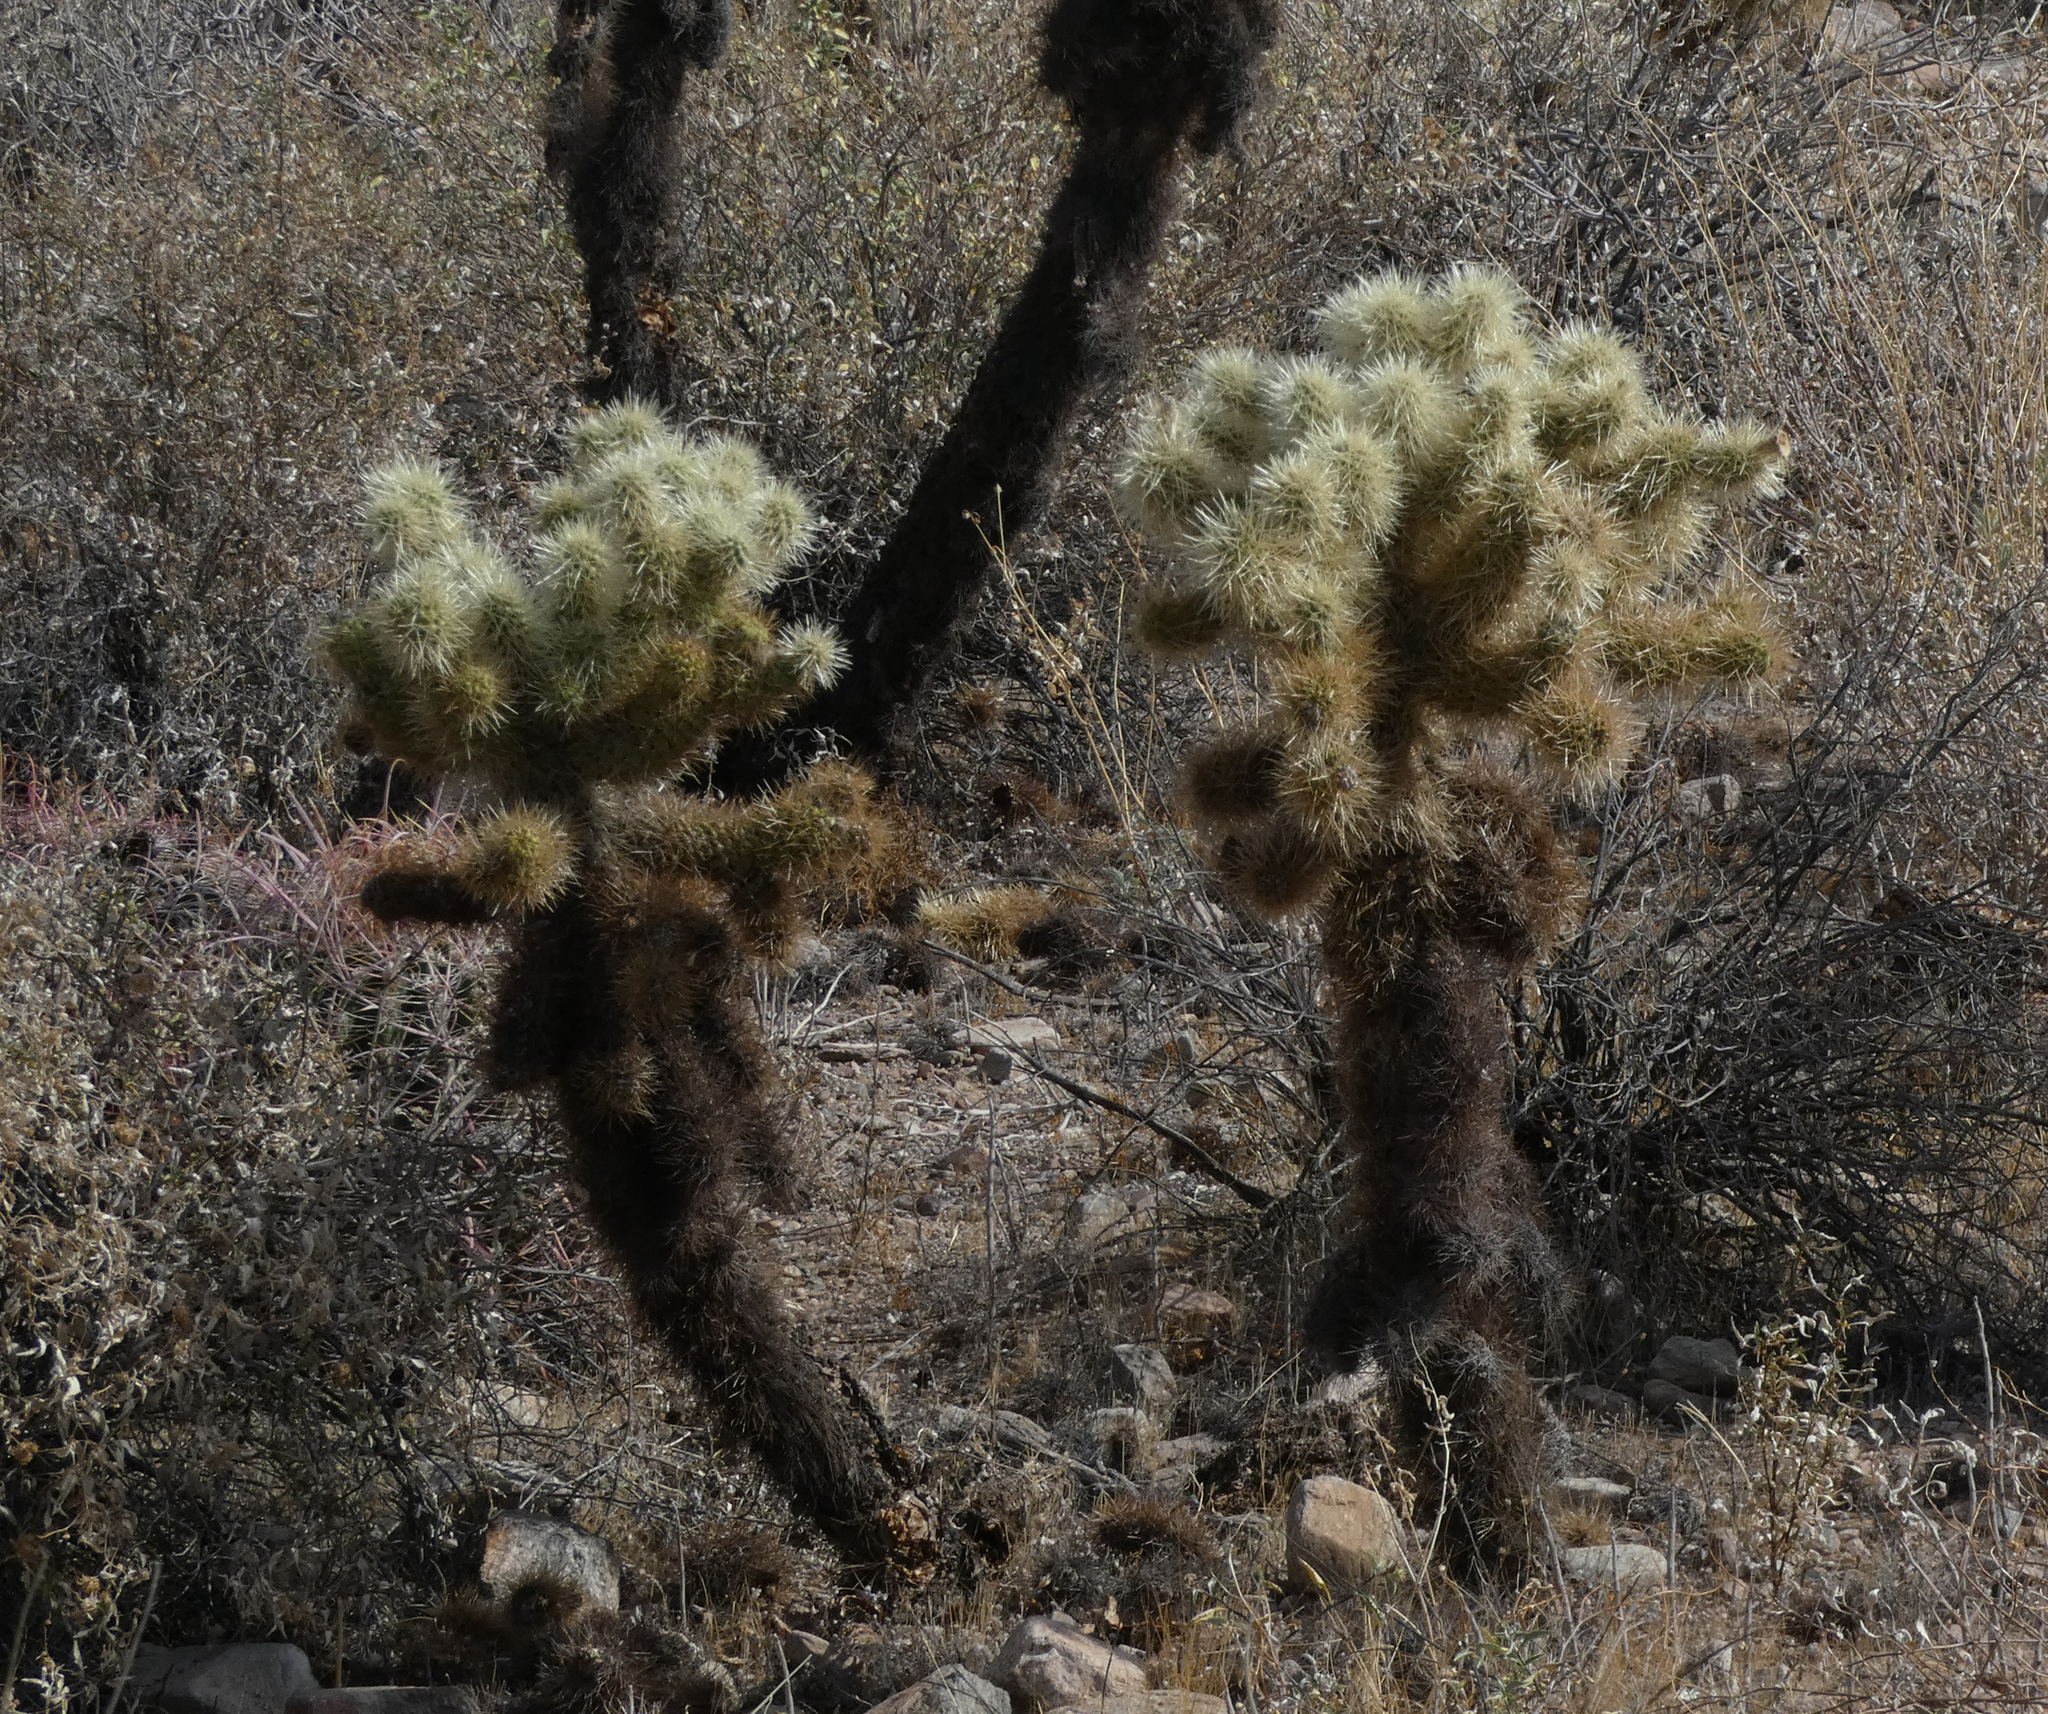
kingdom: Plantae
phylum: Tracheophyta
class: Magnoliopsida
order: Caryophyllales
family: Cactaceae
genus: Cylindropuntia
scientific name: Cylindropuntia fosbergii
